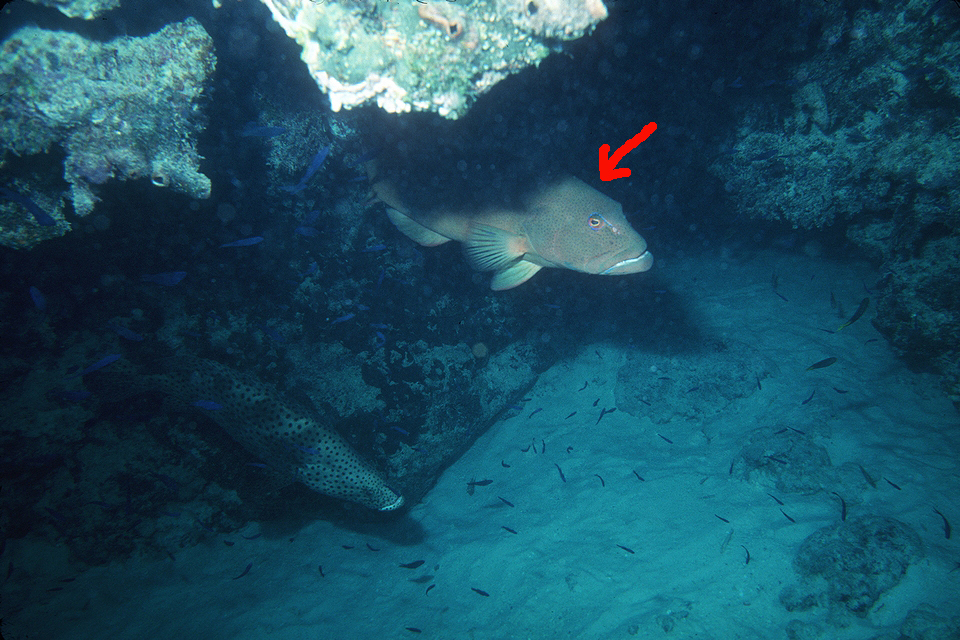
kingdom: Animalia
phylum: Chordata
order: Perciformes
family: Serranidae
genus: Plectropomus
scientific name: Plectropomus leopardus
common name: Coral trout
